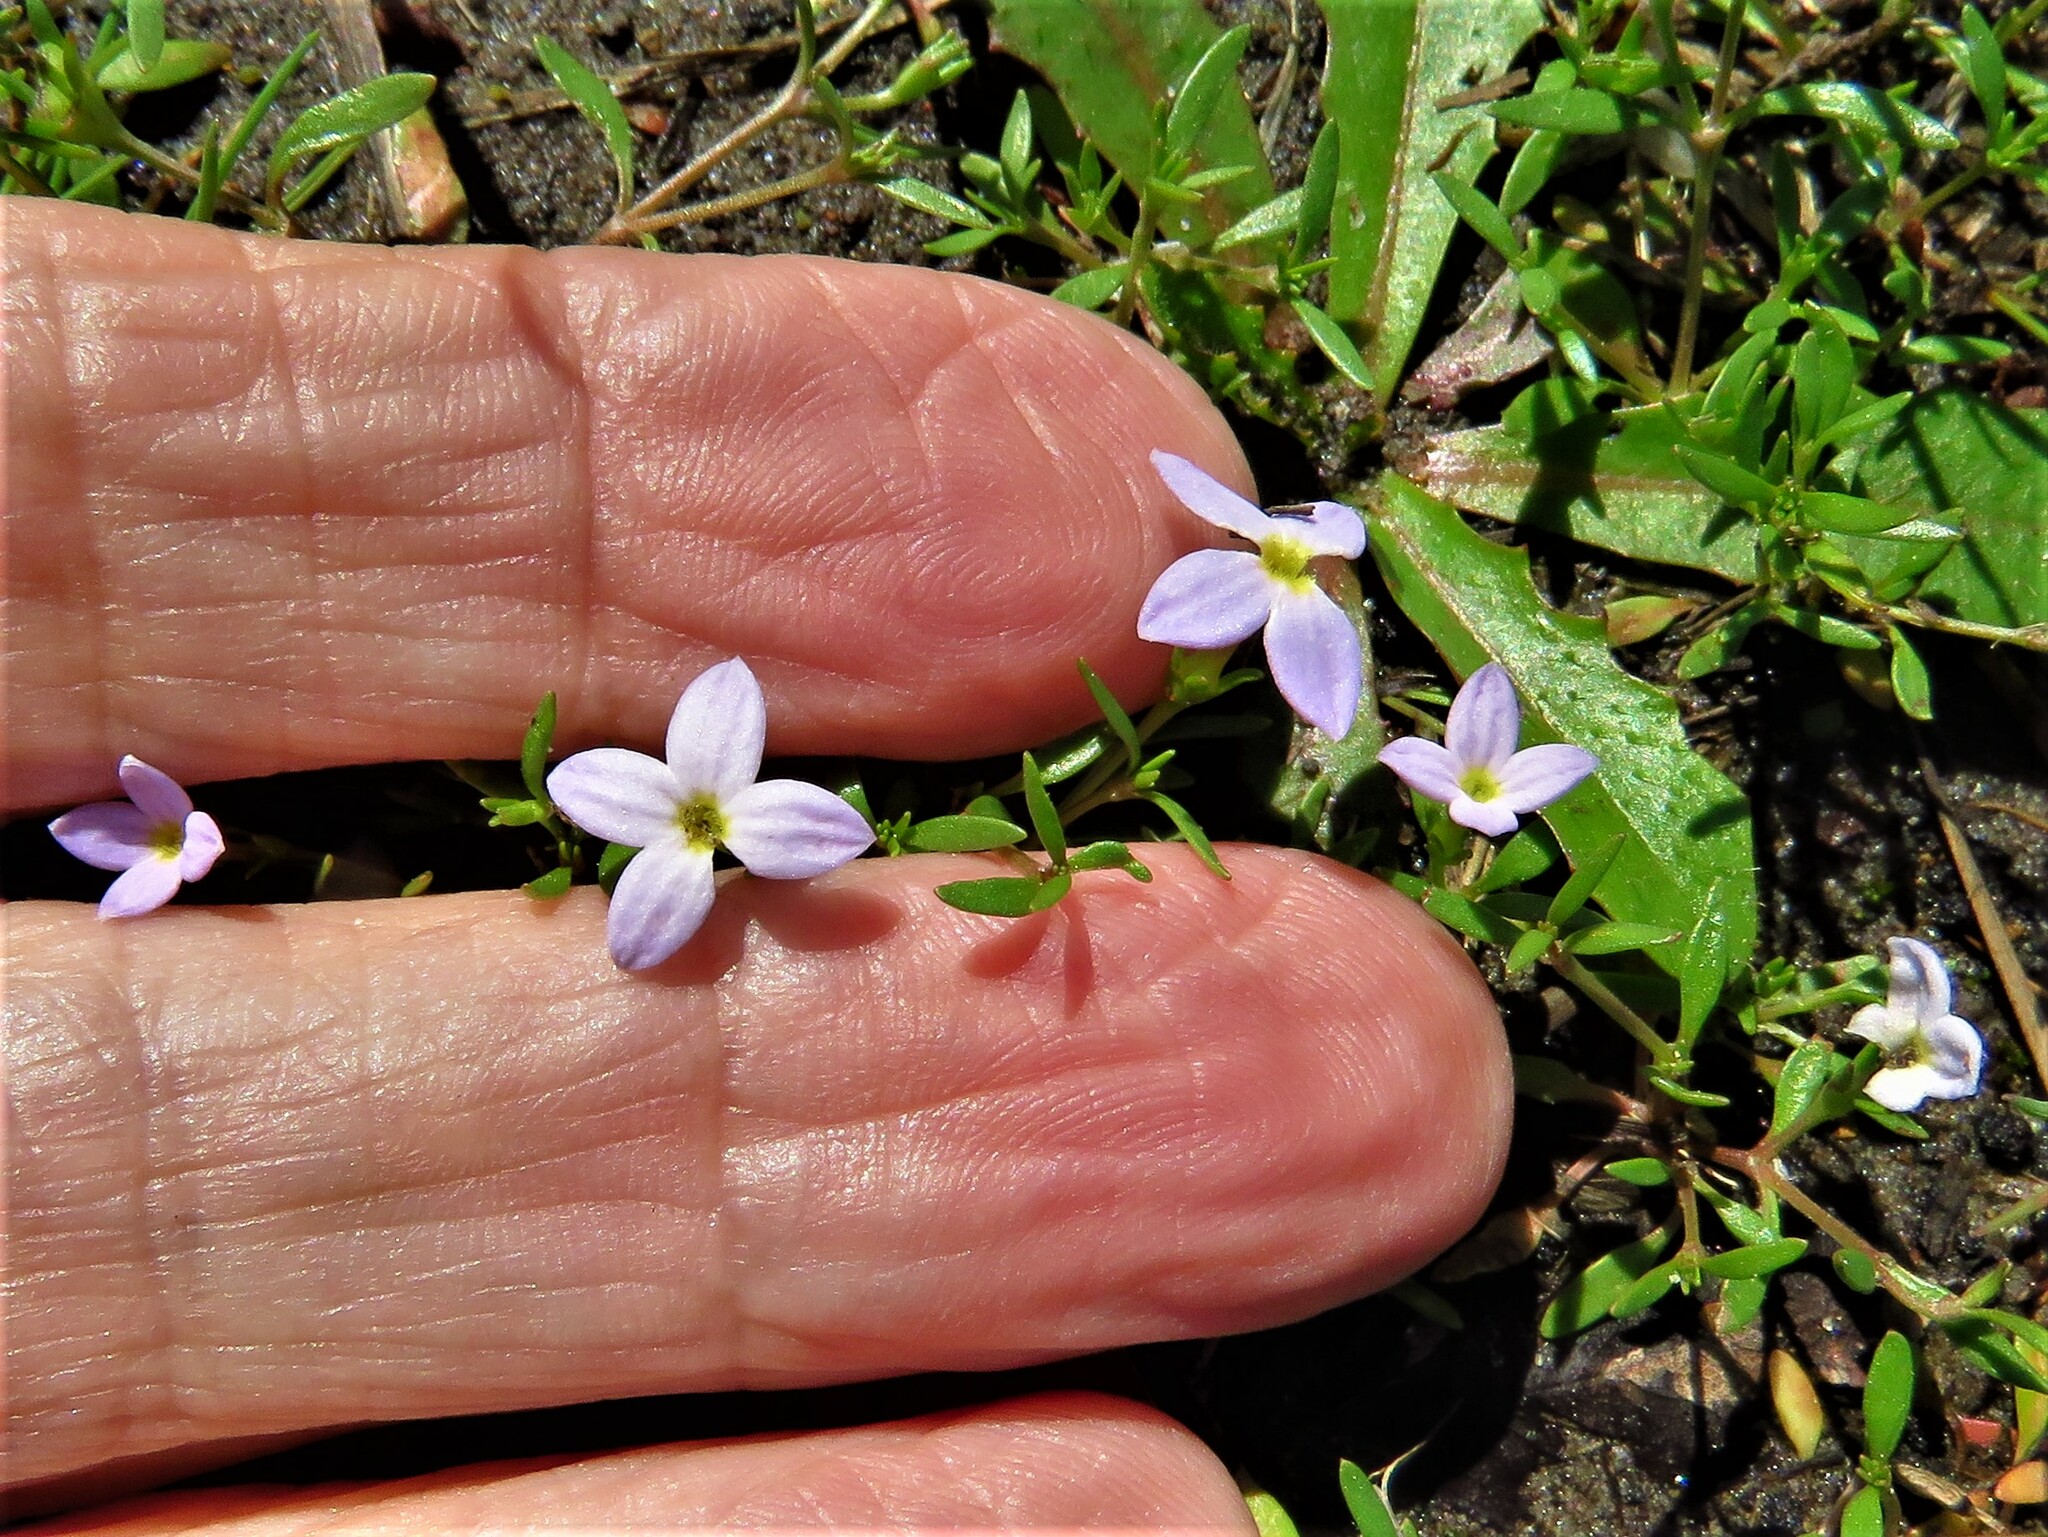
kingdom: Plantae
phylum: Tracheophyta
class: Magnoliopsida
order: Gentianales
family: Rubiaceae
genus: Houstonia
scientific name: Houstonia rosea
